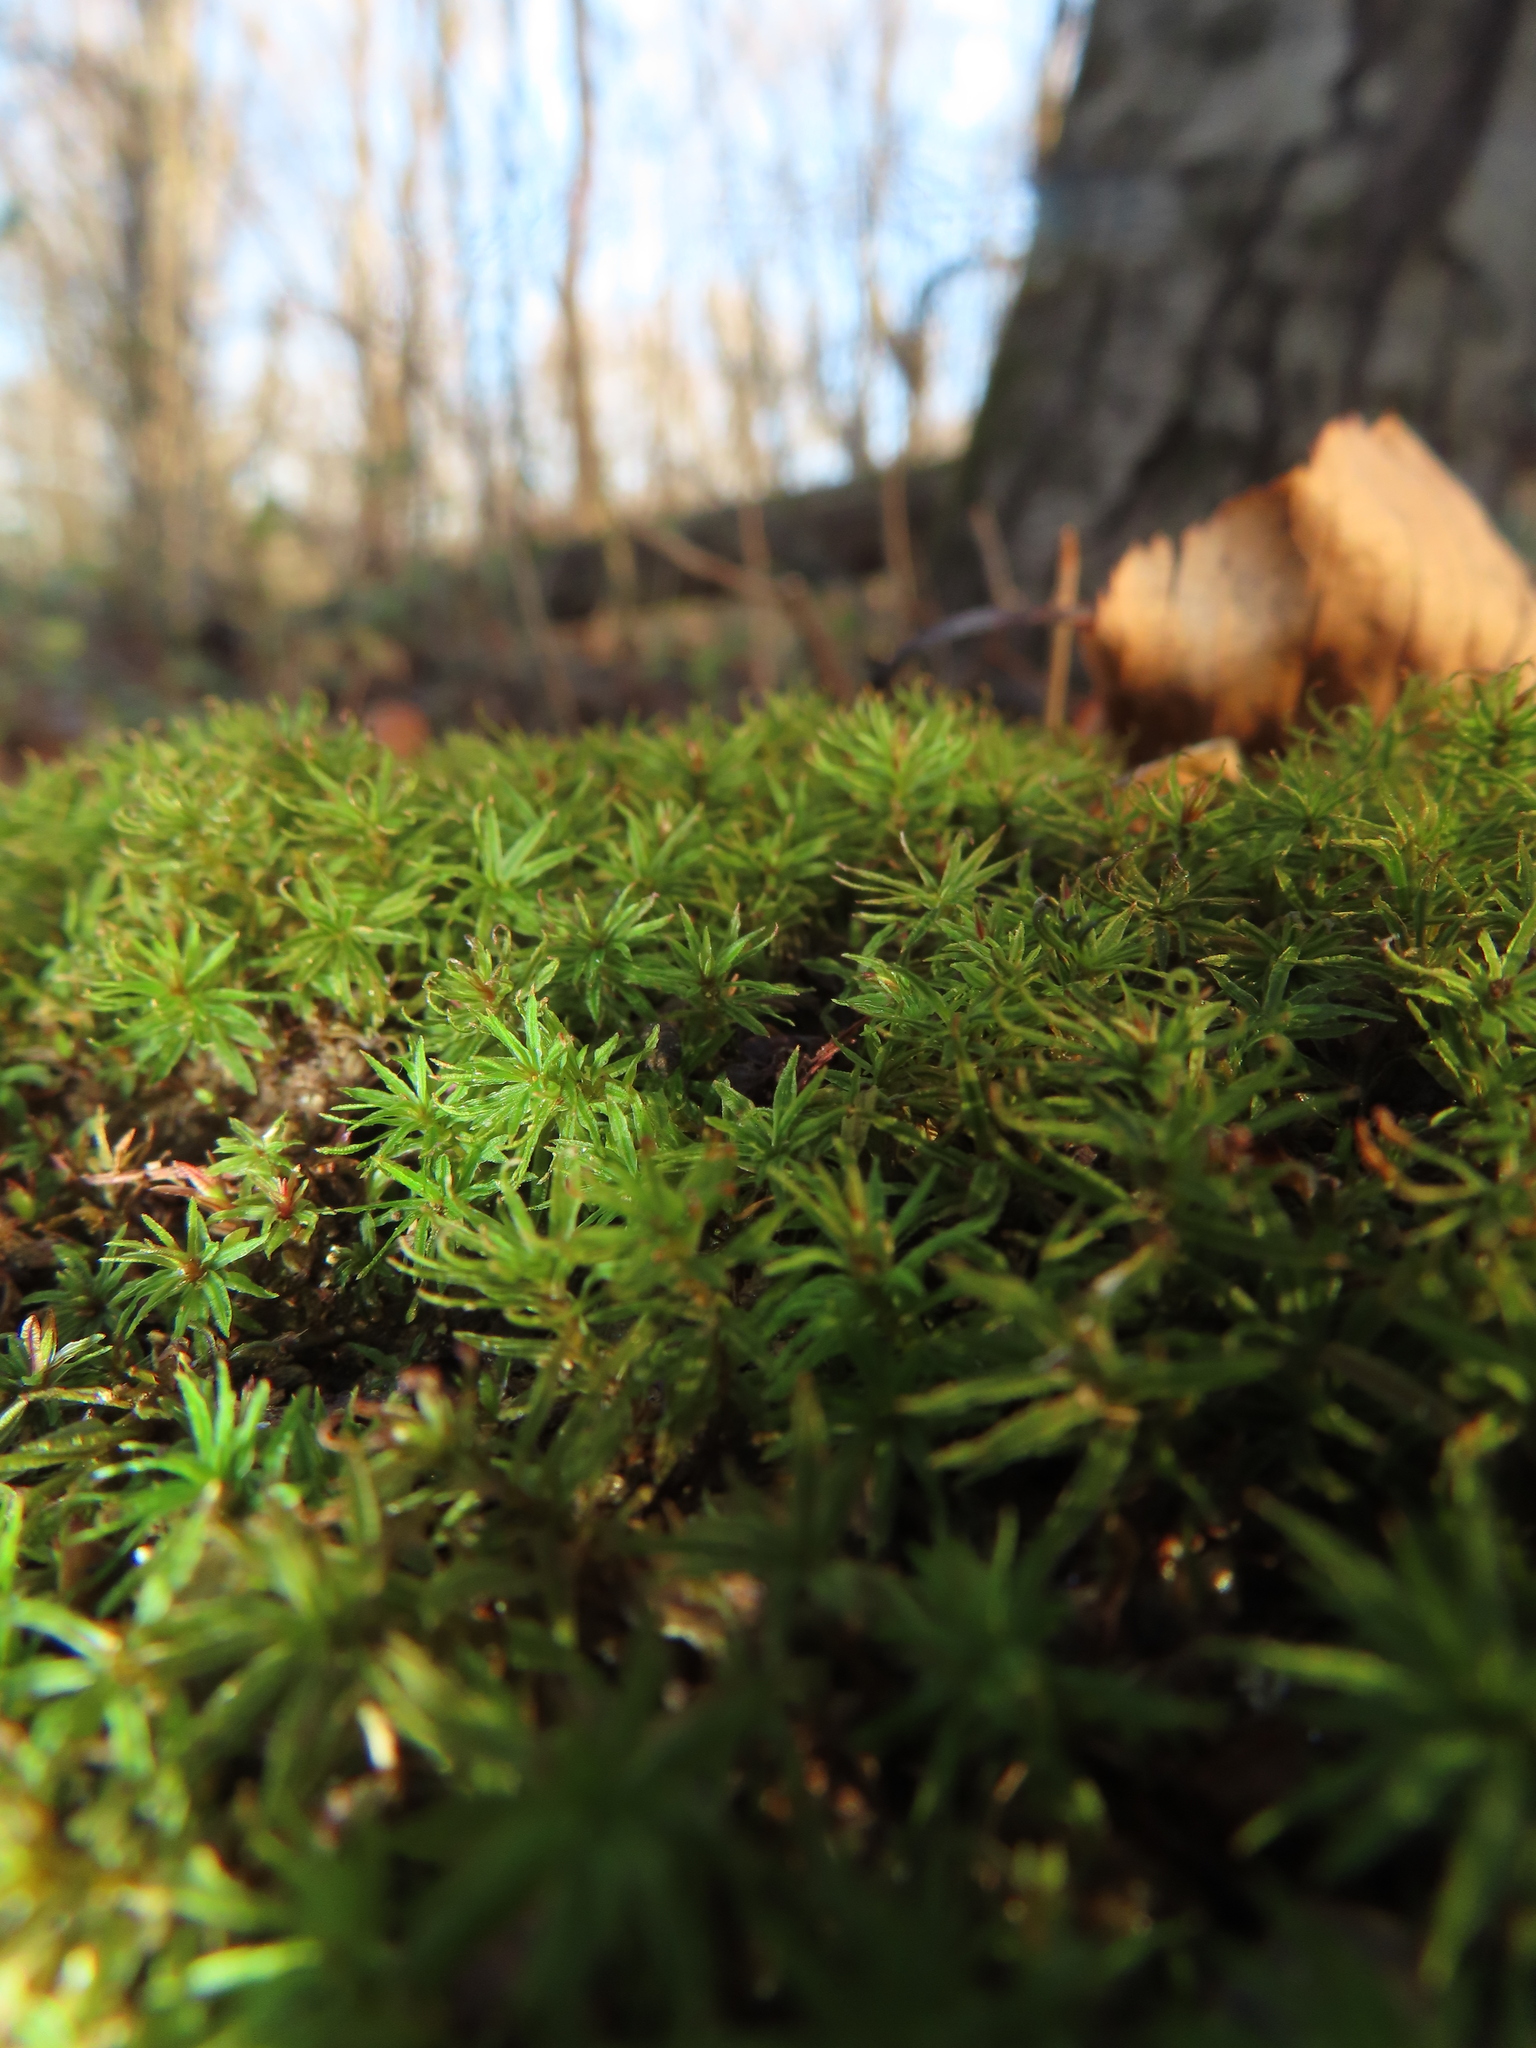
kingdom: Plantae
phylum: Bryophyta
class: Polytrichopsida
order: Polytrichales
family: Polytrichaceae
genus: Atrichum
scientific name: Atrichum angustatum
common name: Lesser smoothcap
